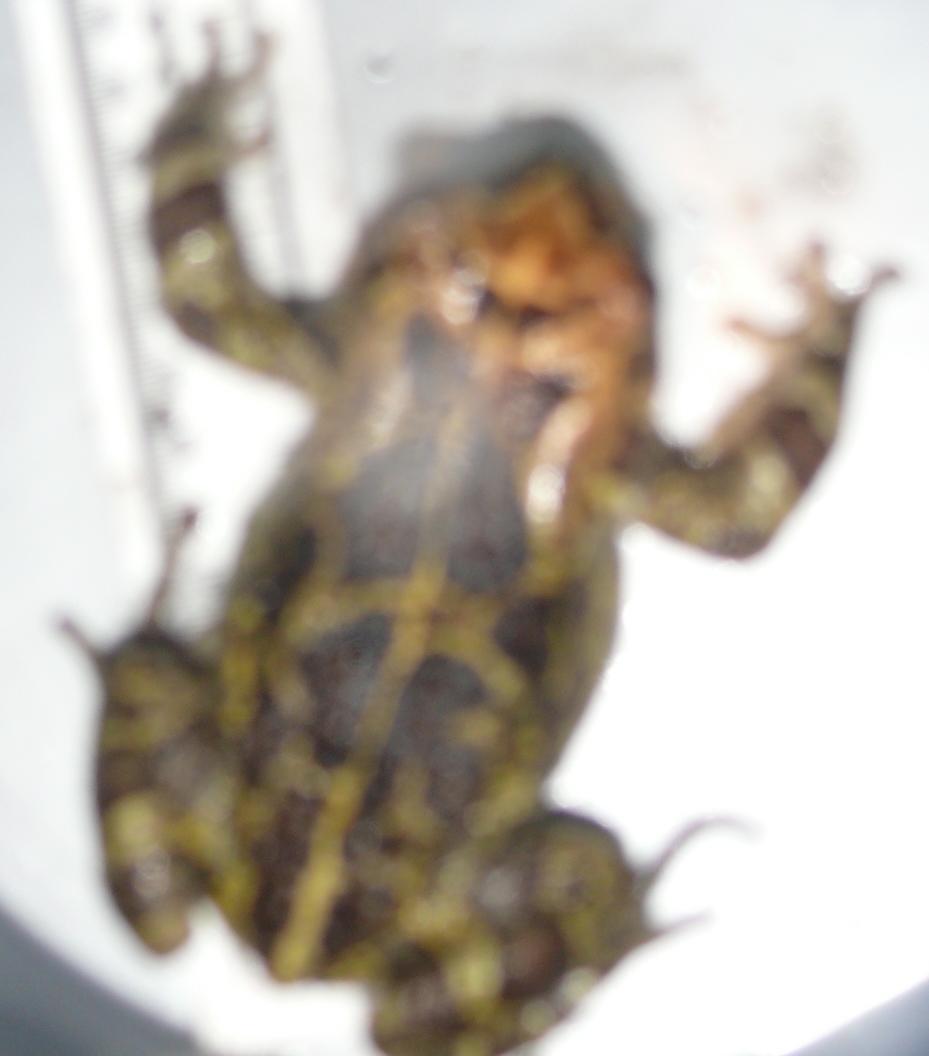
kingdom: Animalia
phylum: Chordata
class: Amphibia
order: Anura
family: Bufonidae
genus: Sclerophrys
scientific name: Sclerophrys pantherina
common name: Panther toad
